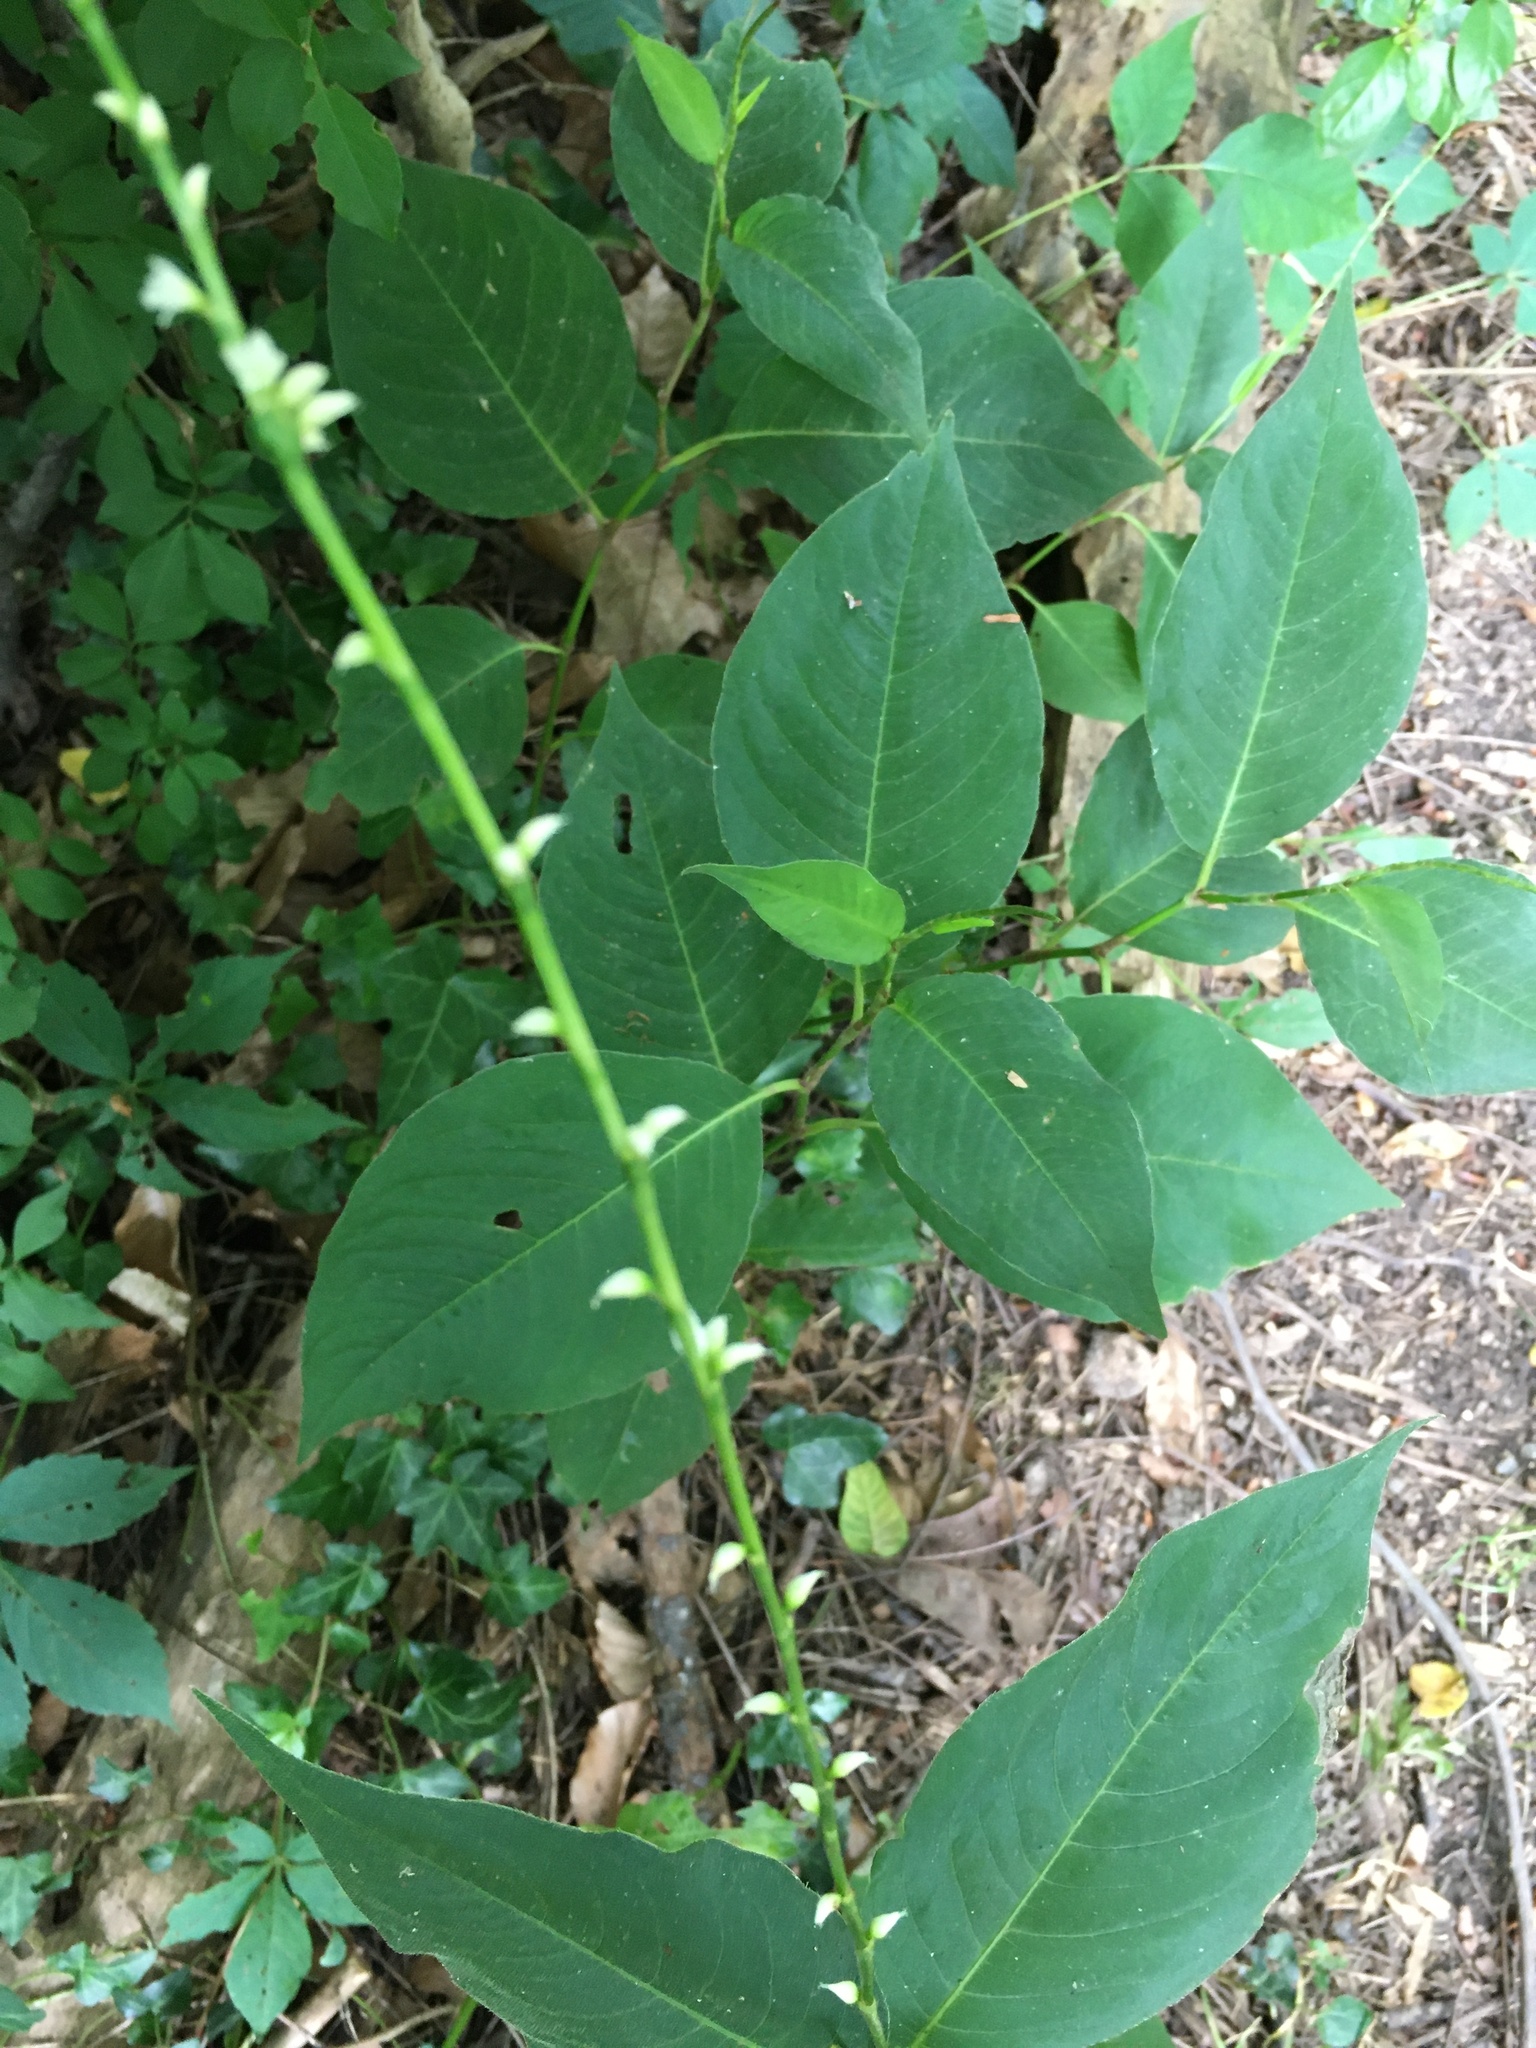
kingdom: Plantae
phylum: Tracheophyta
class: Magnoliopsida
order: Caryophyllales
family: Polygonaceae
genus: Persicaria
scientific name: Persicaria virginiana
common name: Jumpseed
